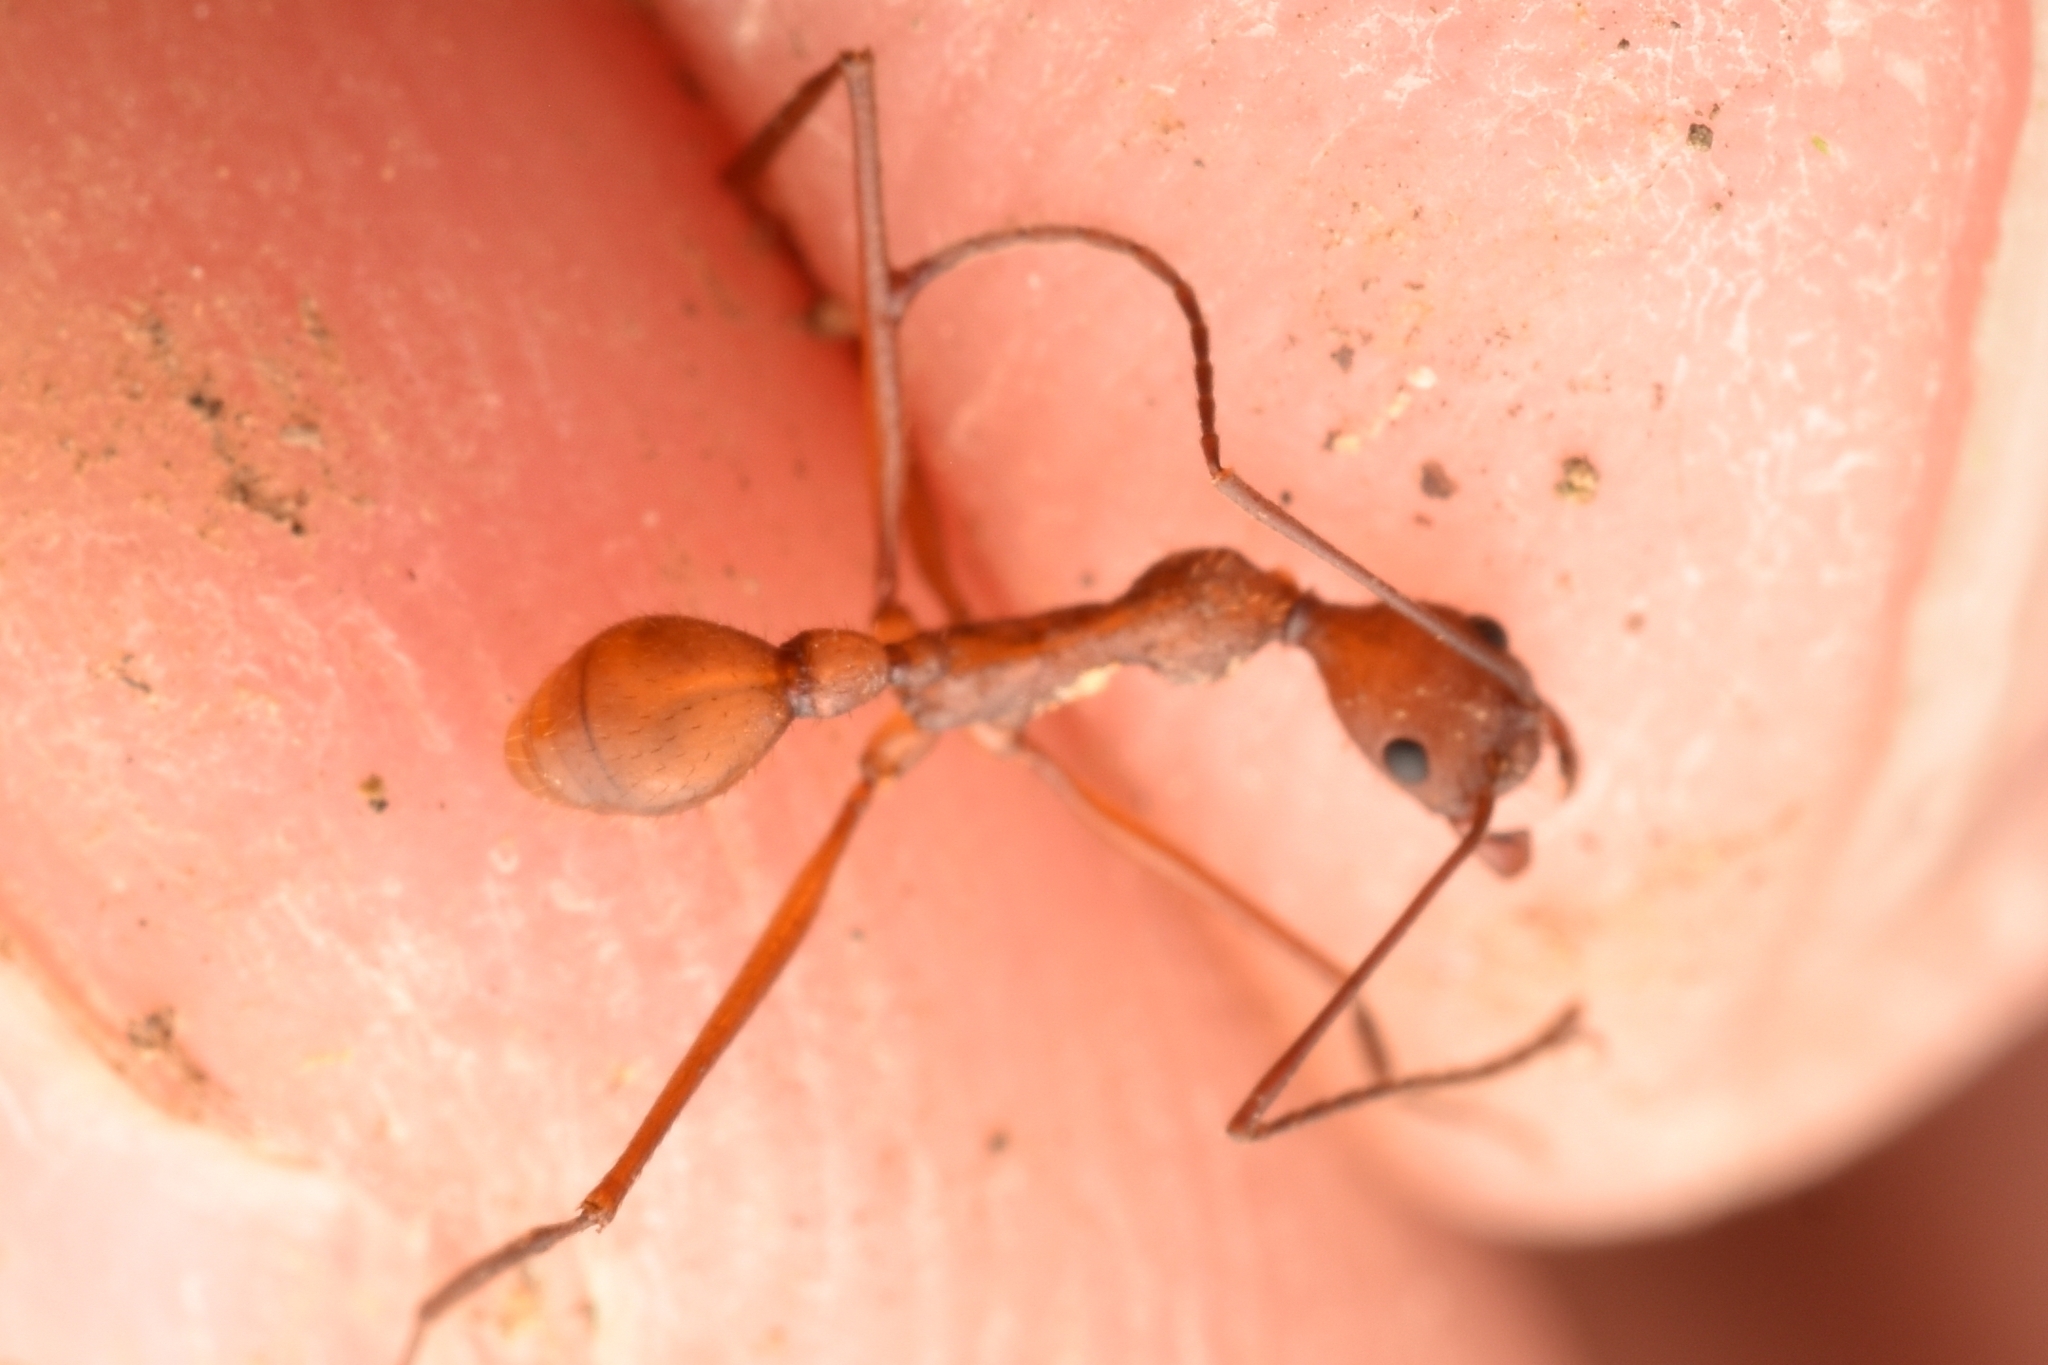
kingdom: Animalia
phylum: Arthropoda
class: Insecta
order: Hymenoptera
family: Formicidae
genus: Aphaenogaster
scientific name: Aphaenogaster inermita
